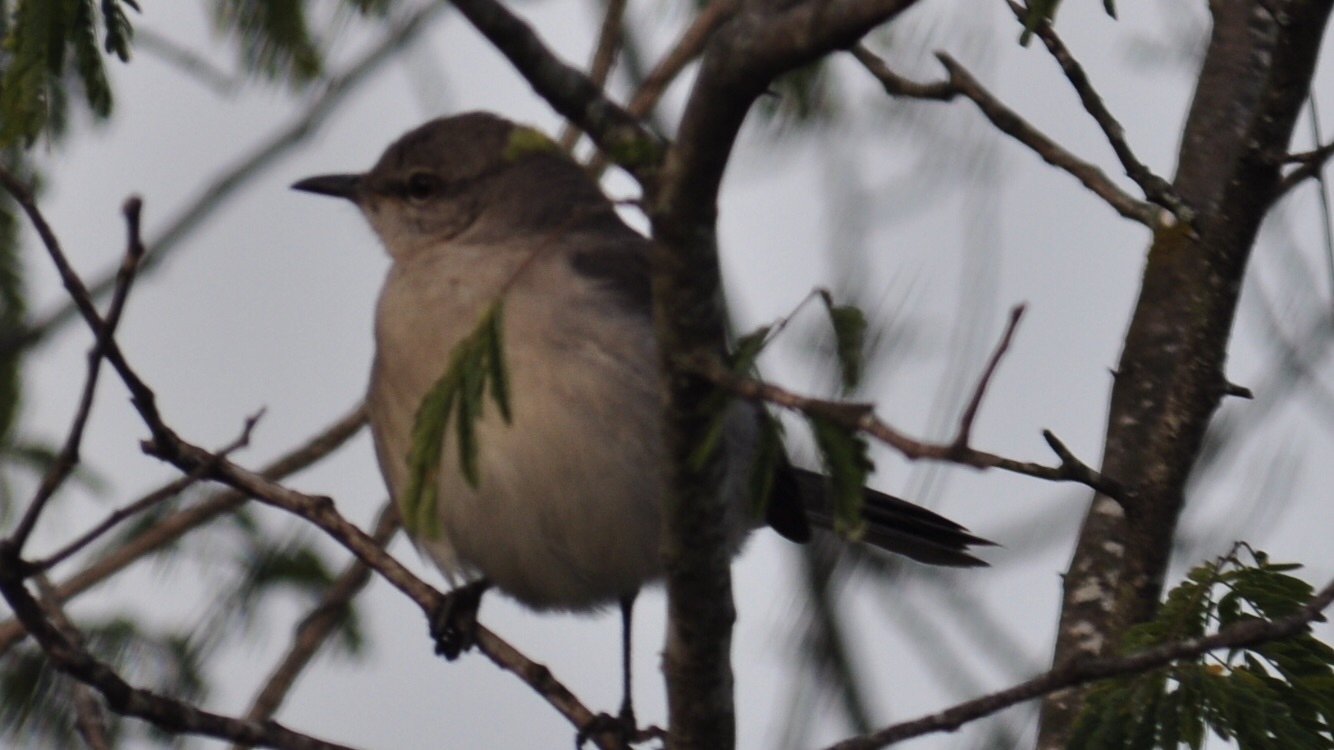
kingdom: Animalia
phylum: Chordata
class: Aves
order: Passeriformes
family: Mimidae
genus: Mimus
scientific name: Mimus polyglottos
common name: Northern mockingbird
